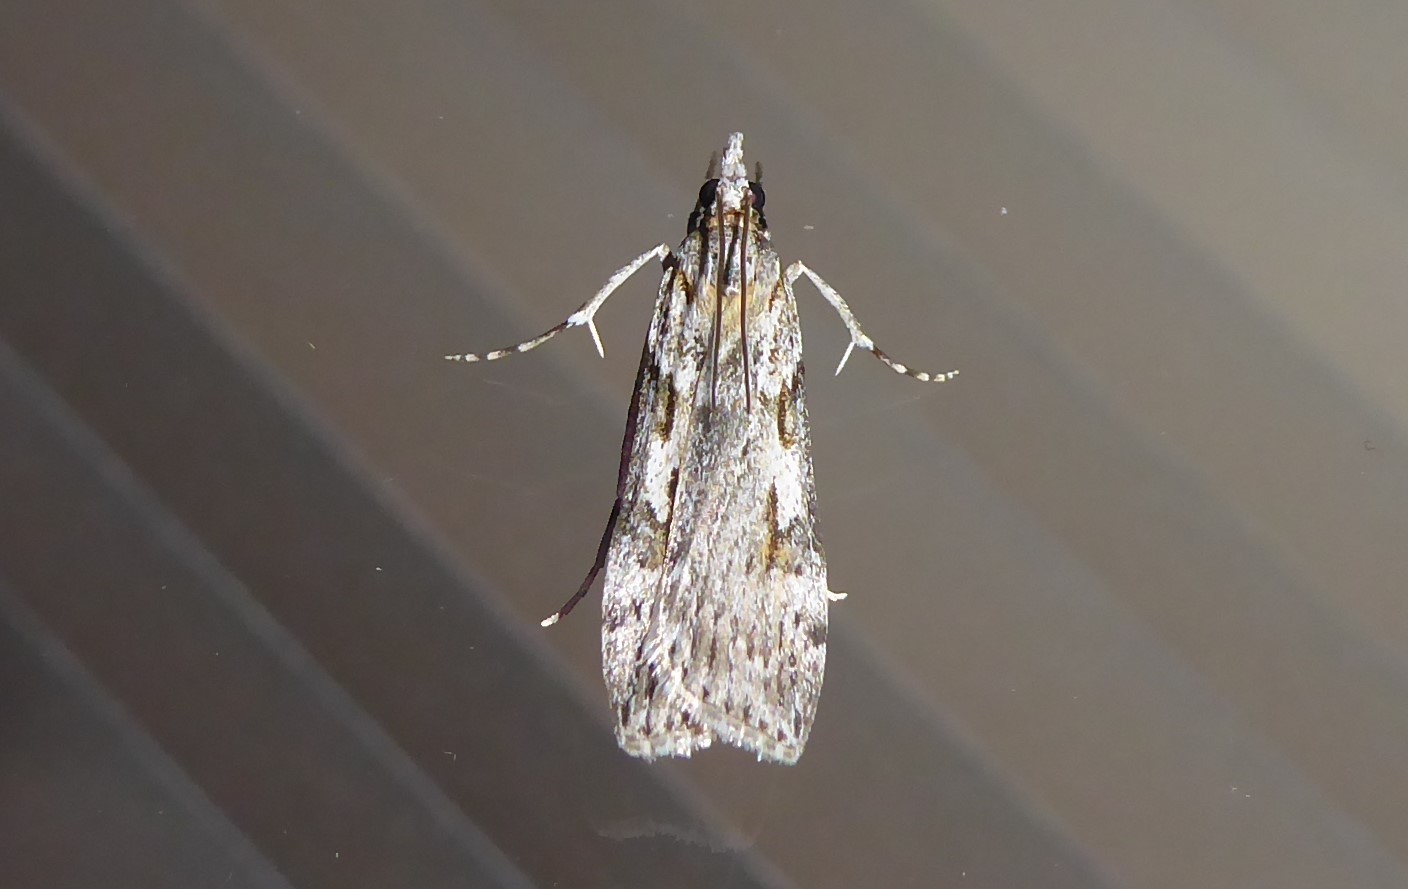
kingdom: Animalia
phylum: Arthropoda
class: Insecta
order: Lepidoptera
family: Crambidae
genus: Scoparia
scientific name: Scoparia halopis
